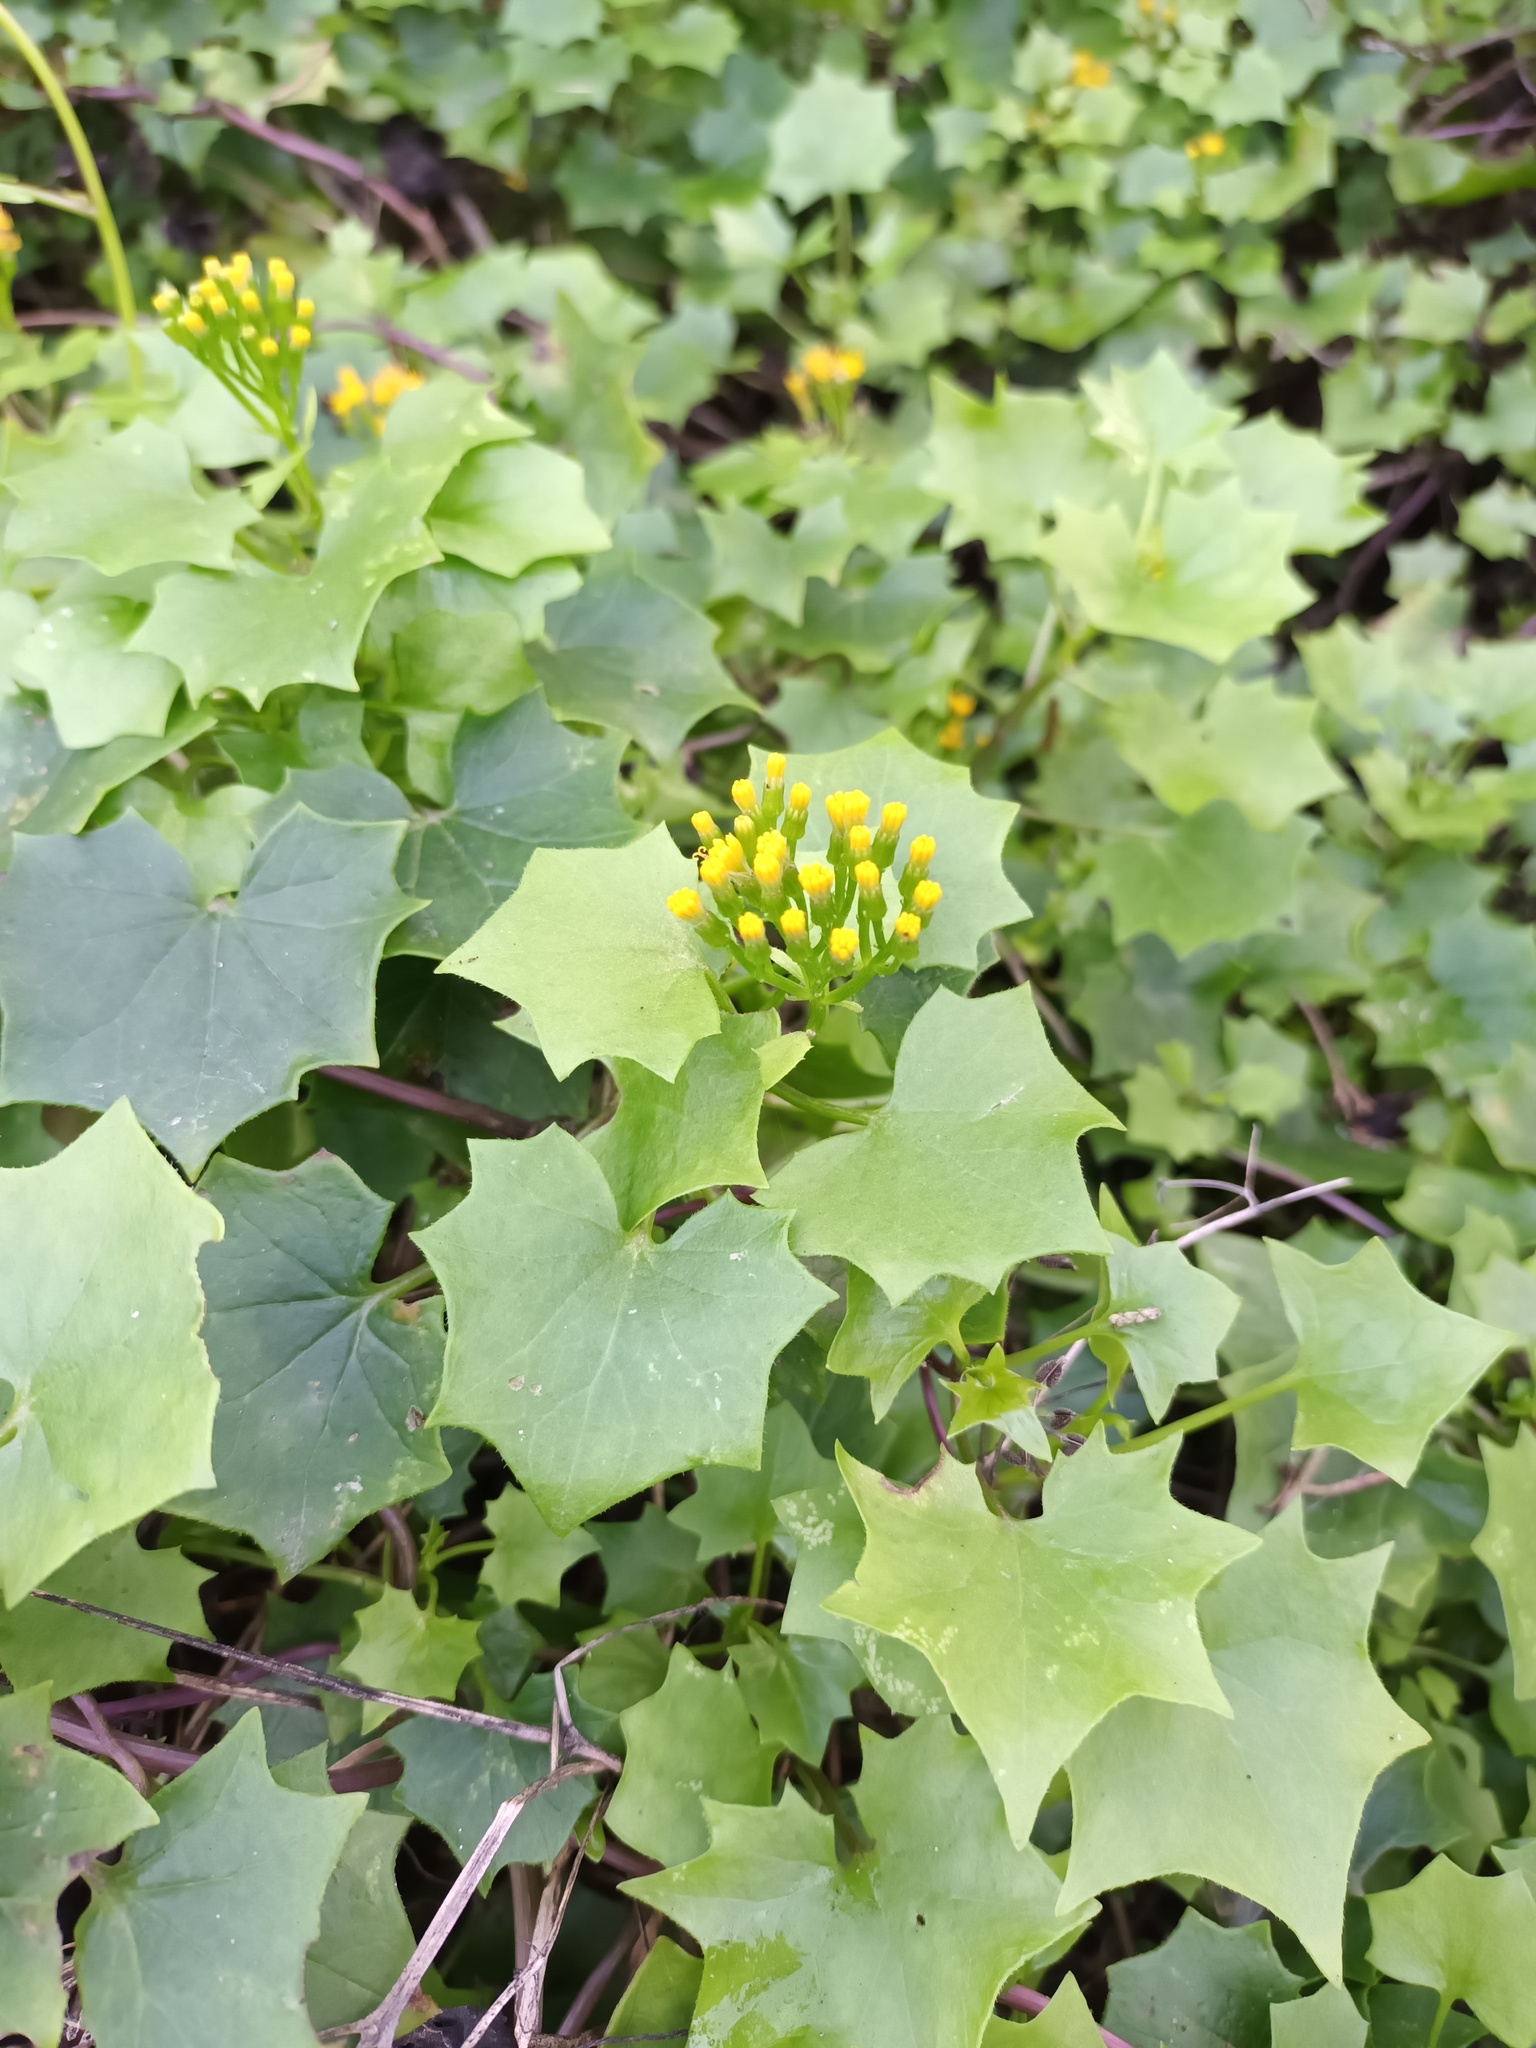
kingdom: Plantae
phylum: Tracheophyta
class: Magnoliopsida
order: Asterales
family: Asteraceae
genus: Delairea
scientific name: Delairea odorata
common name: Cape-ivy
